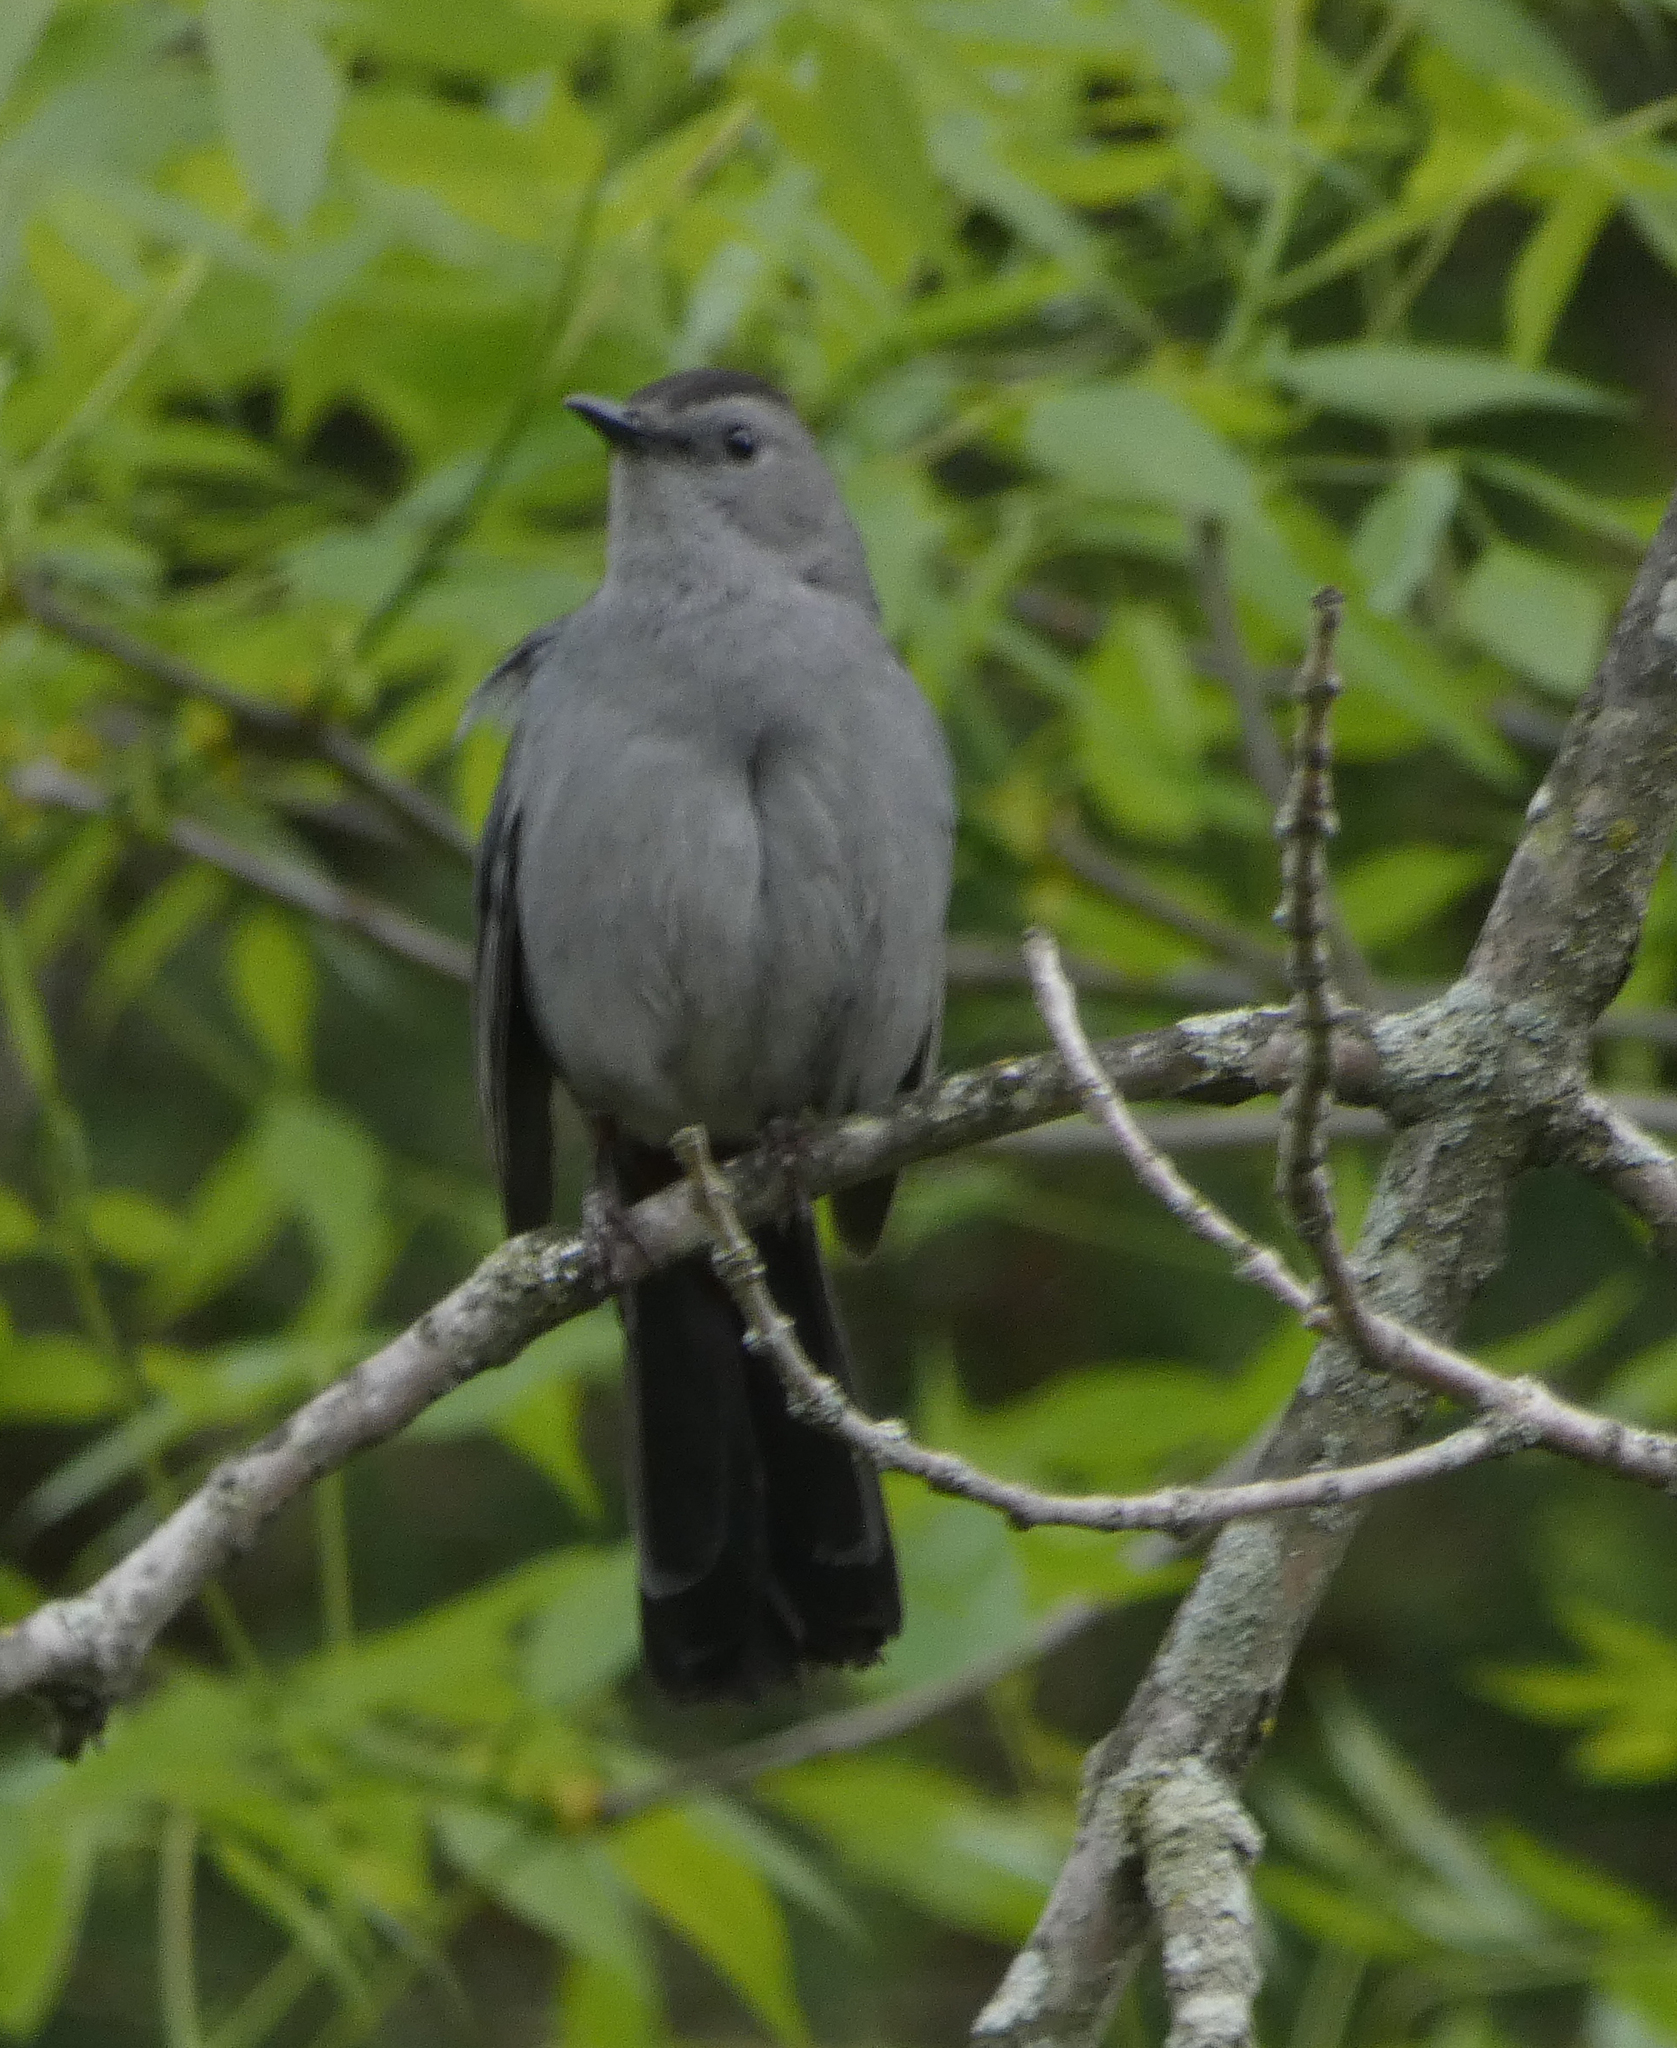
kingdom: Animalia
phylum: Chordata
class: Aves
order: Passeriformes
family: Mimidae
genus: Dumetella
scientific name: Dumetella carolinensis
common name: Gray catbird
